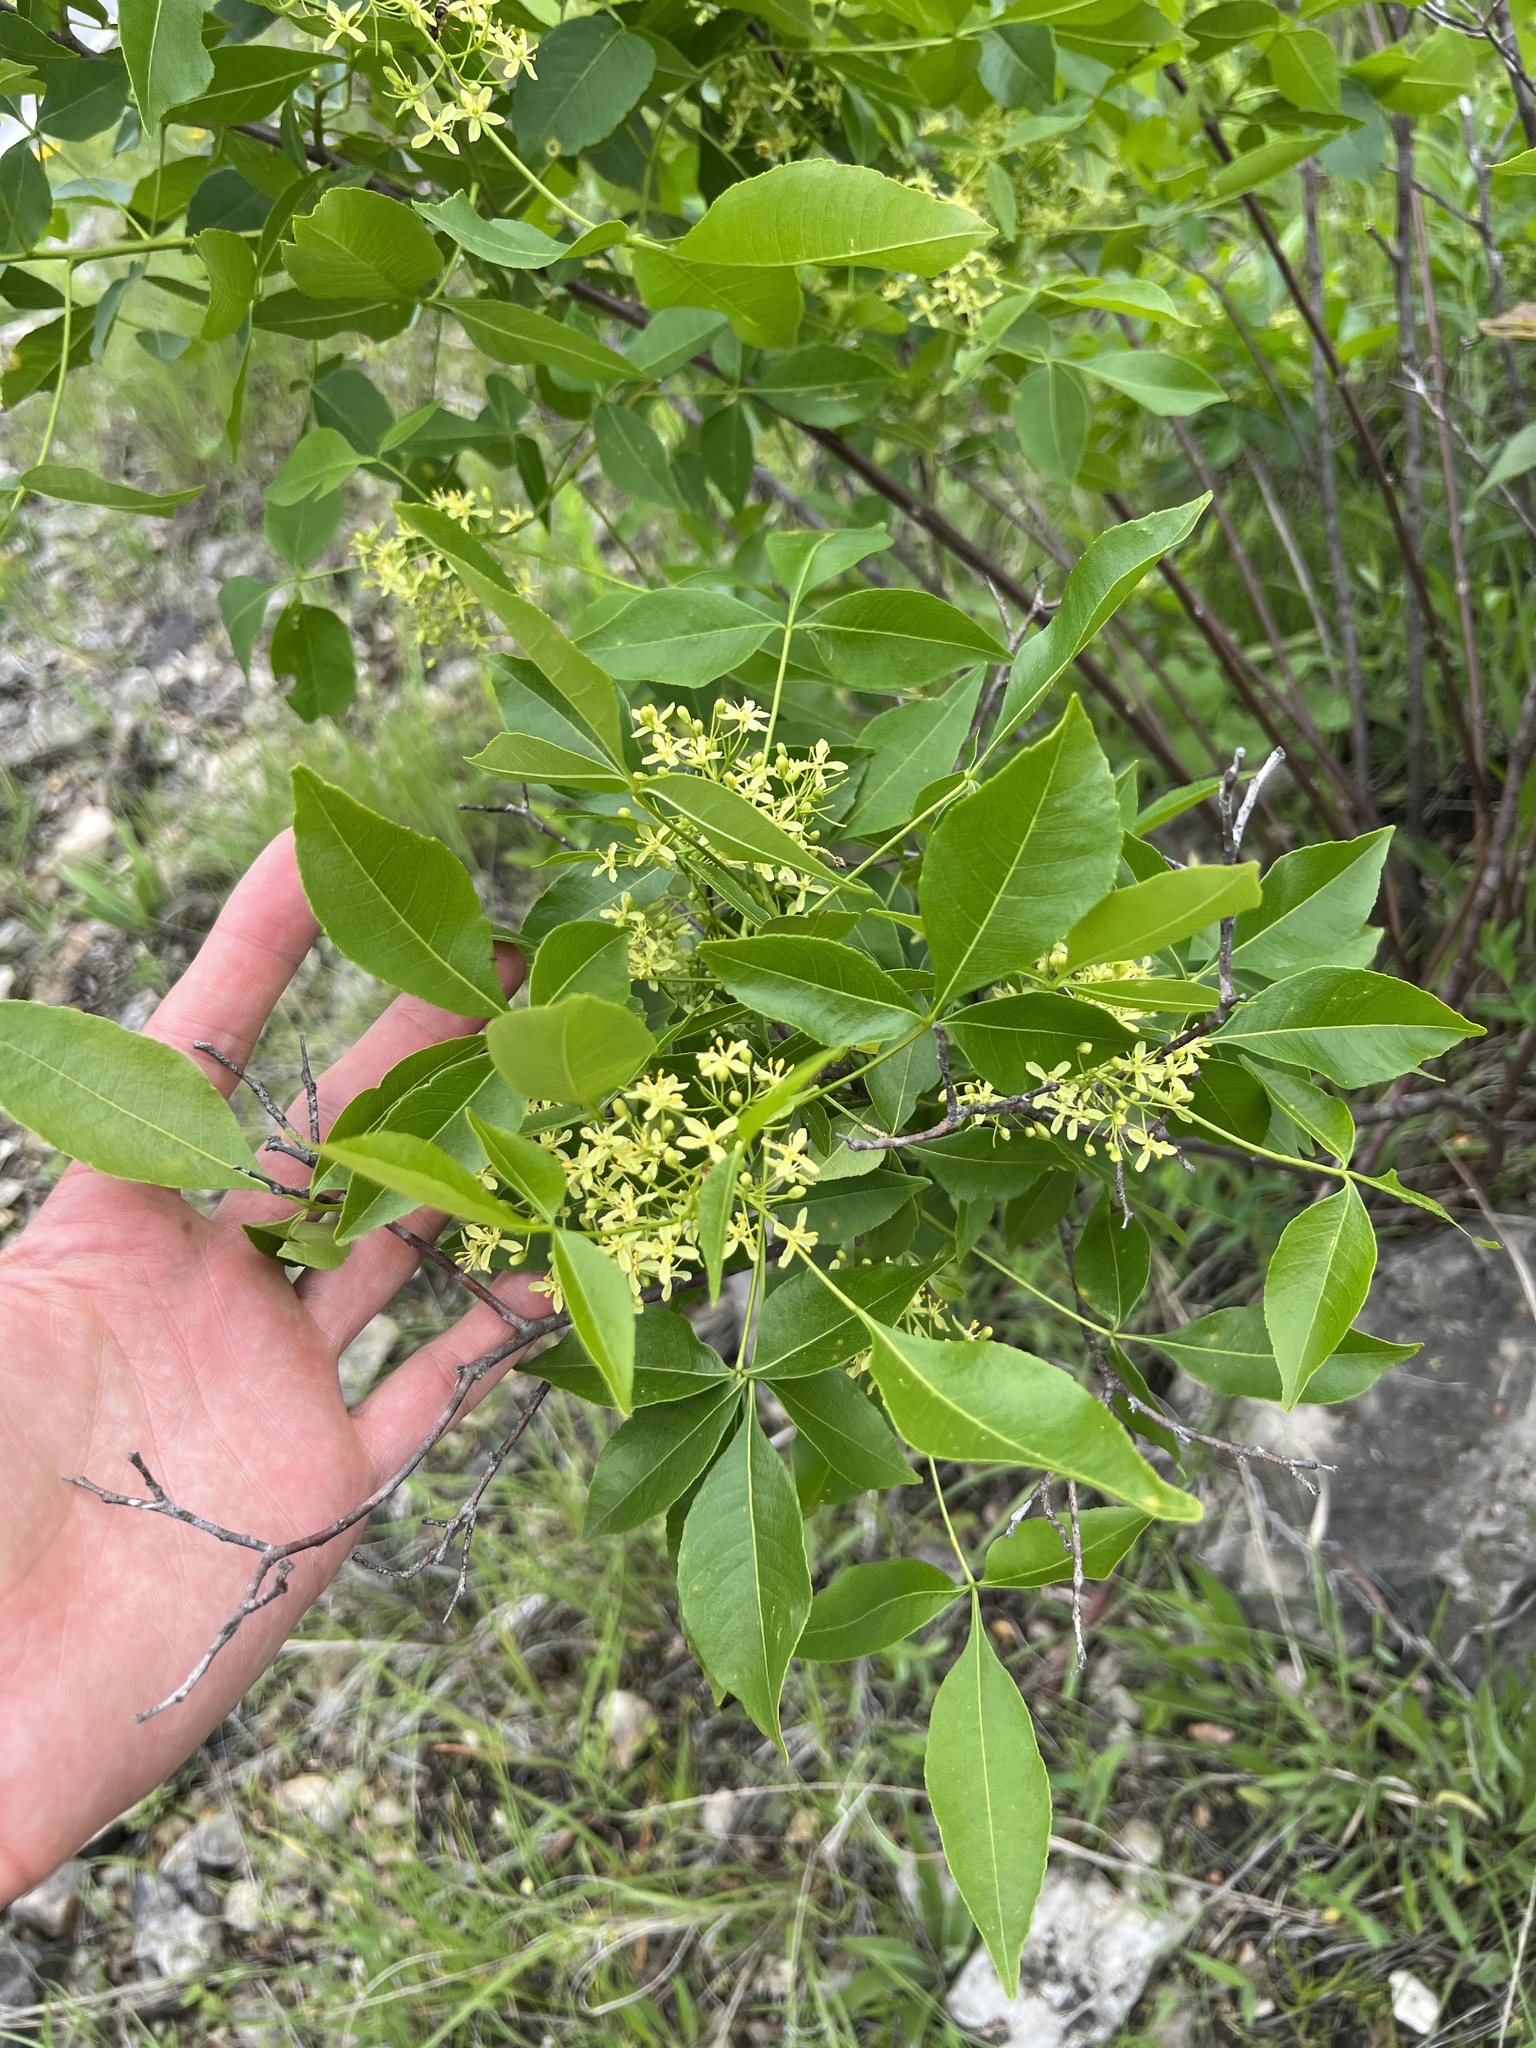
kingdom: Plantae
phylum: Tracheophyta
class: Magnoliopsida
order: Sapindales
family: Rutaceae
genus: Ptelea
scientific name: Ptelea trifoliata
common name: Common hop-tree
